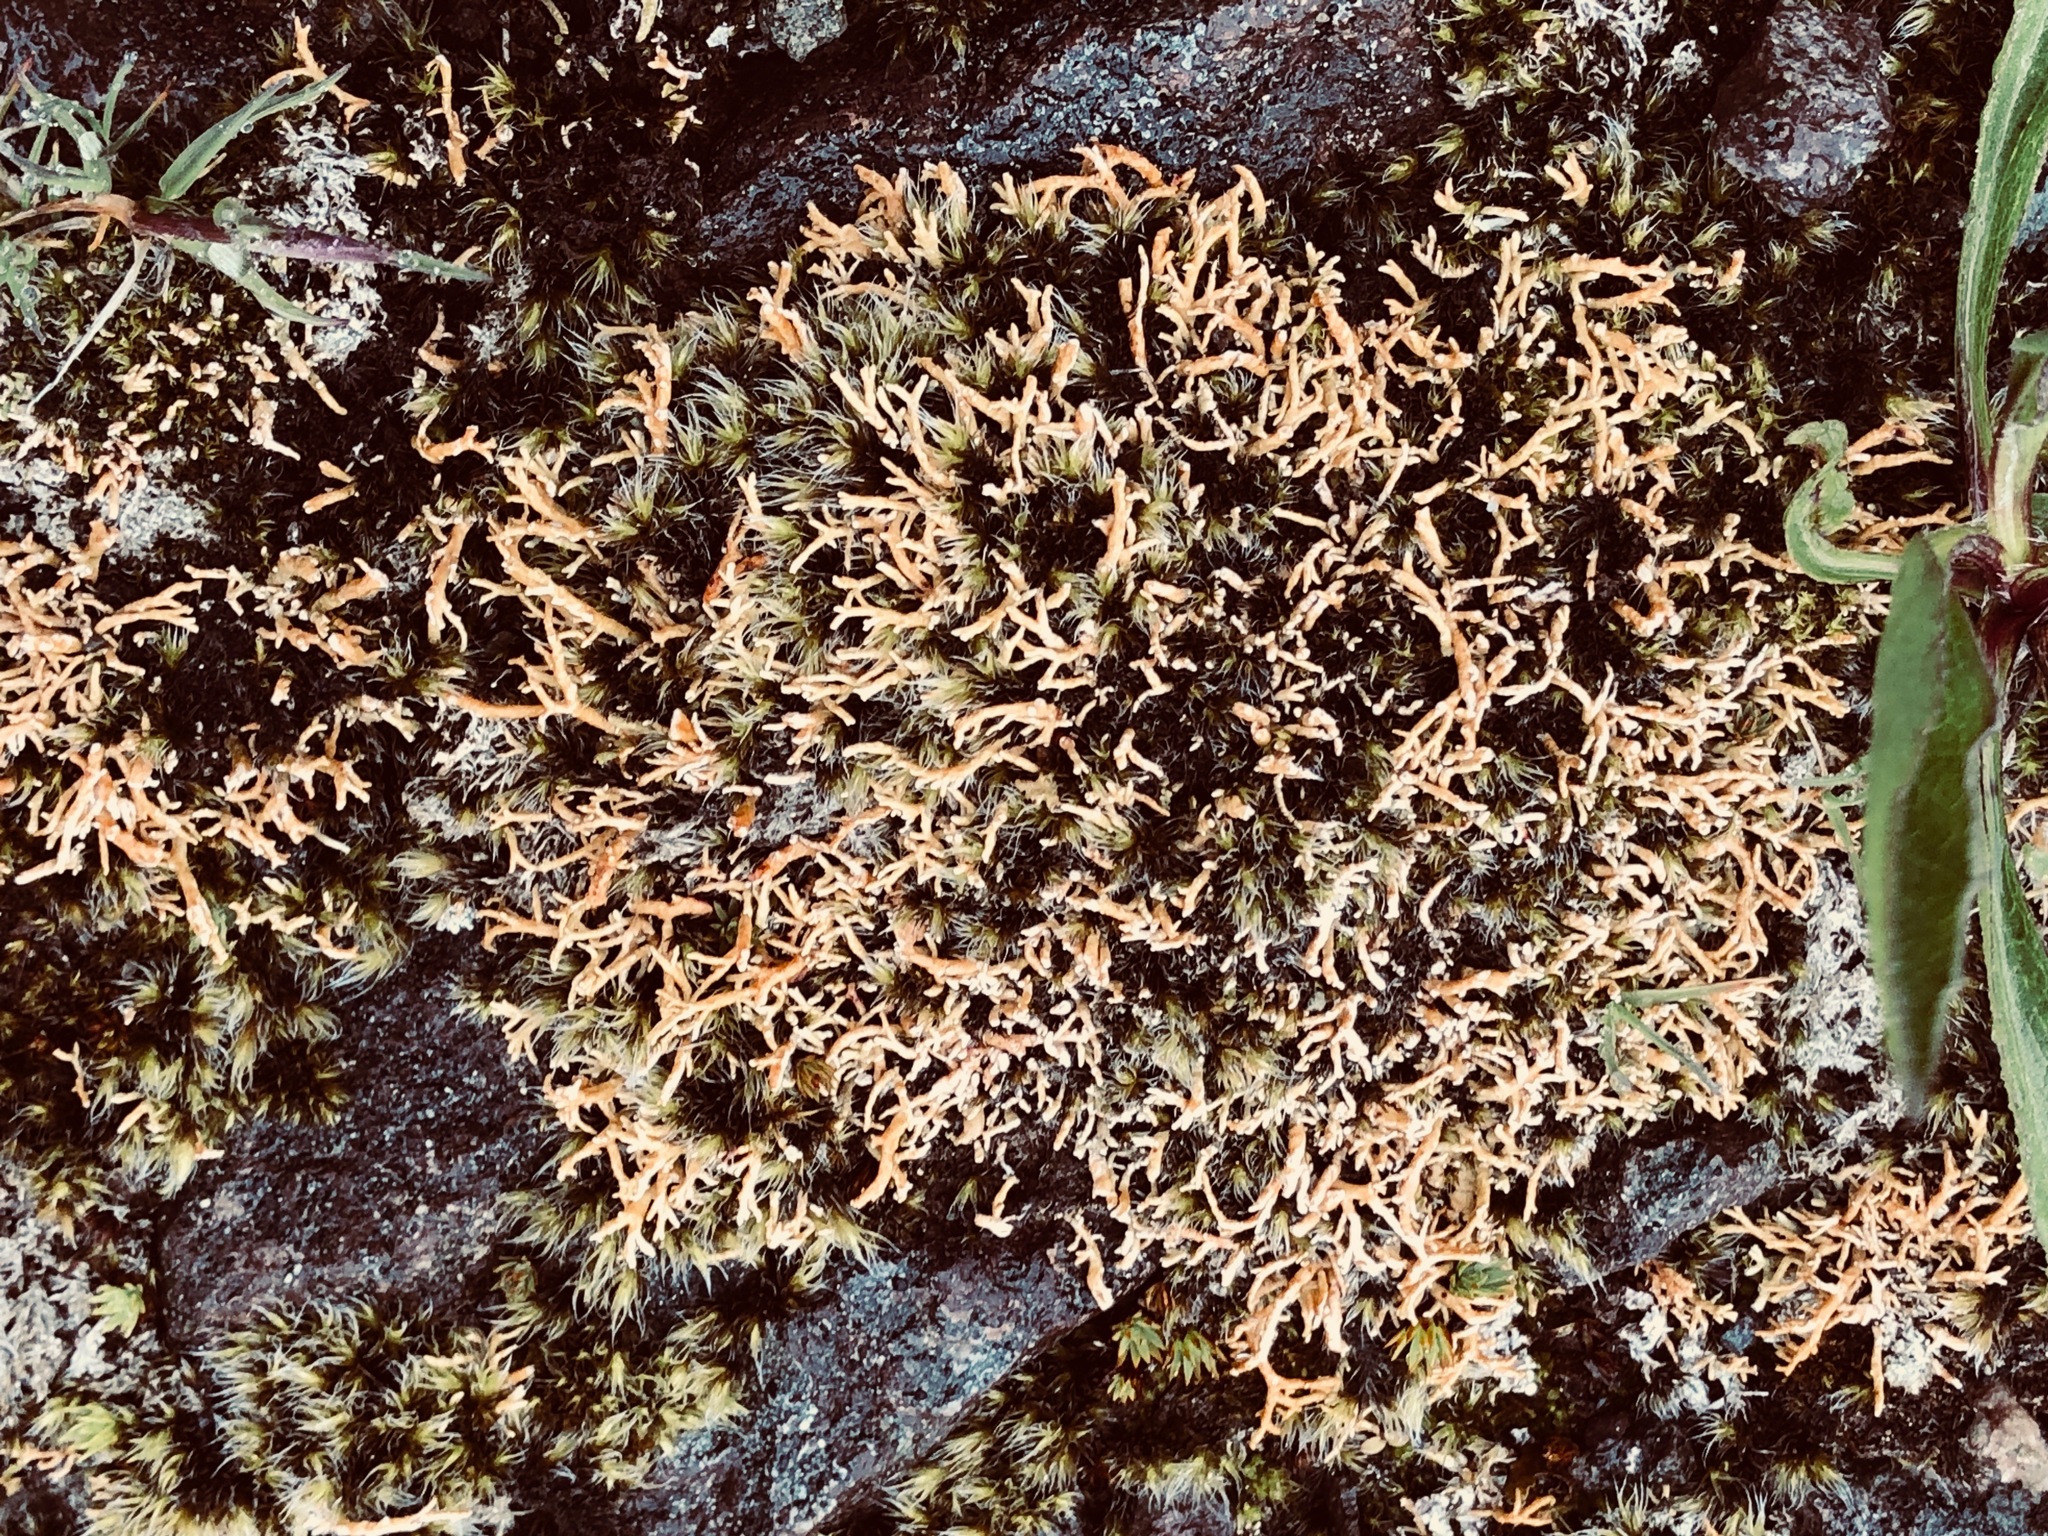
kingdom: Fungi
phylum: Ascomycota
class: Lecanoromycetes
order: Lecanorales
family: Sphaerophoraceae
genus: Sphaerophorus
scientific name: Sphaerophorus globosus
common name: Globe ball lichen
